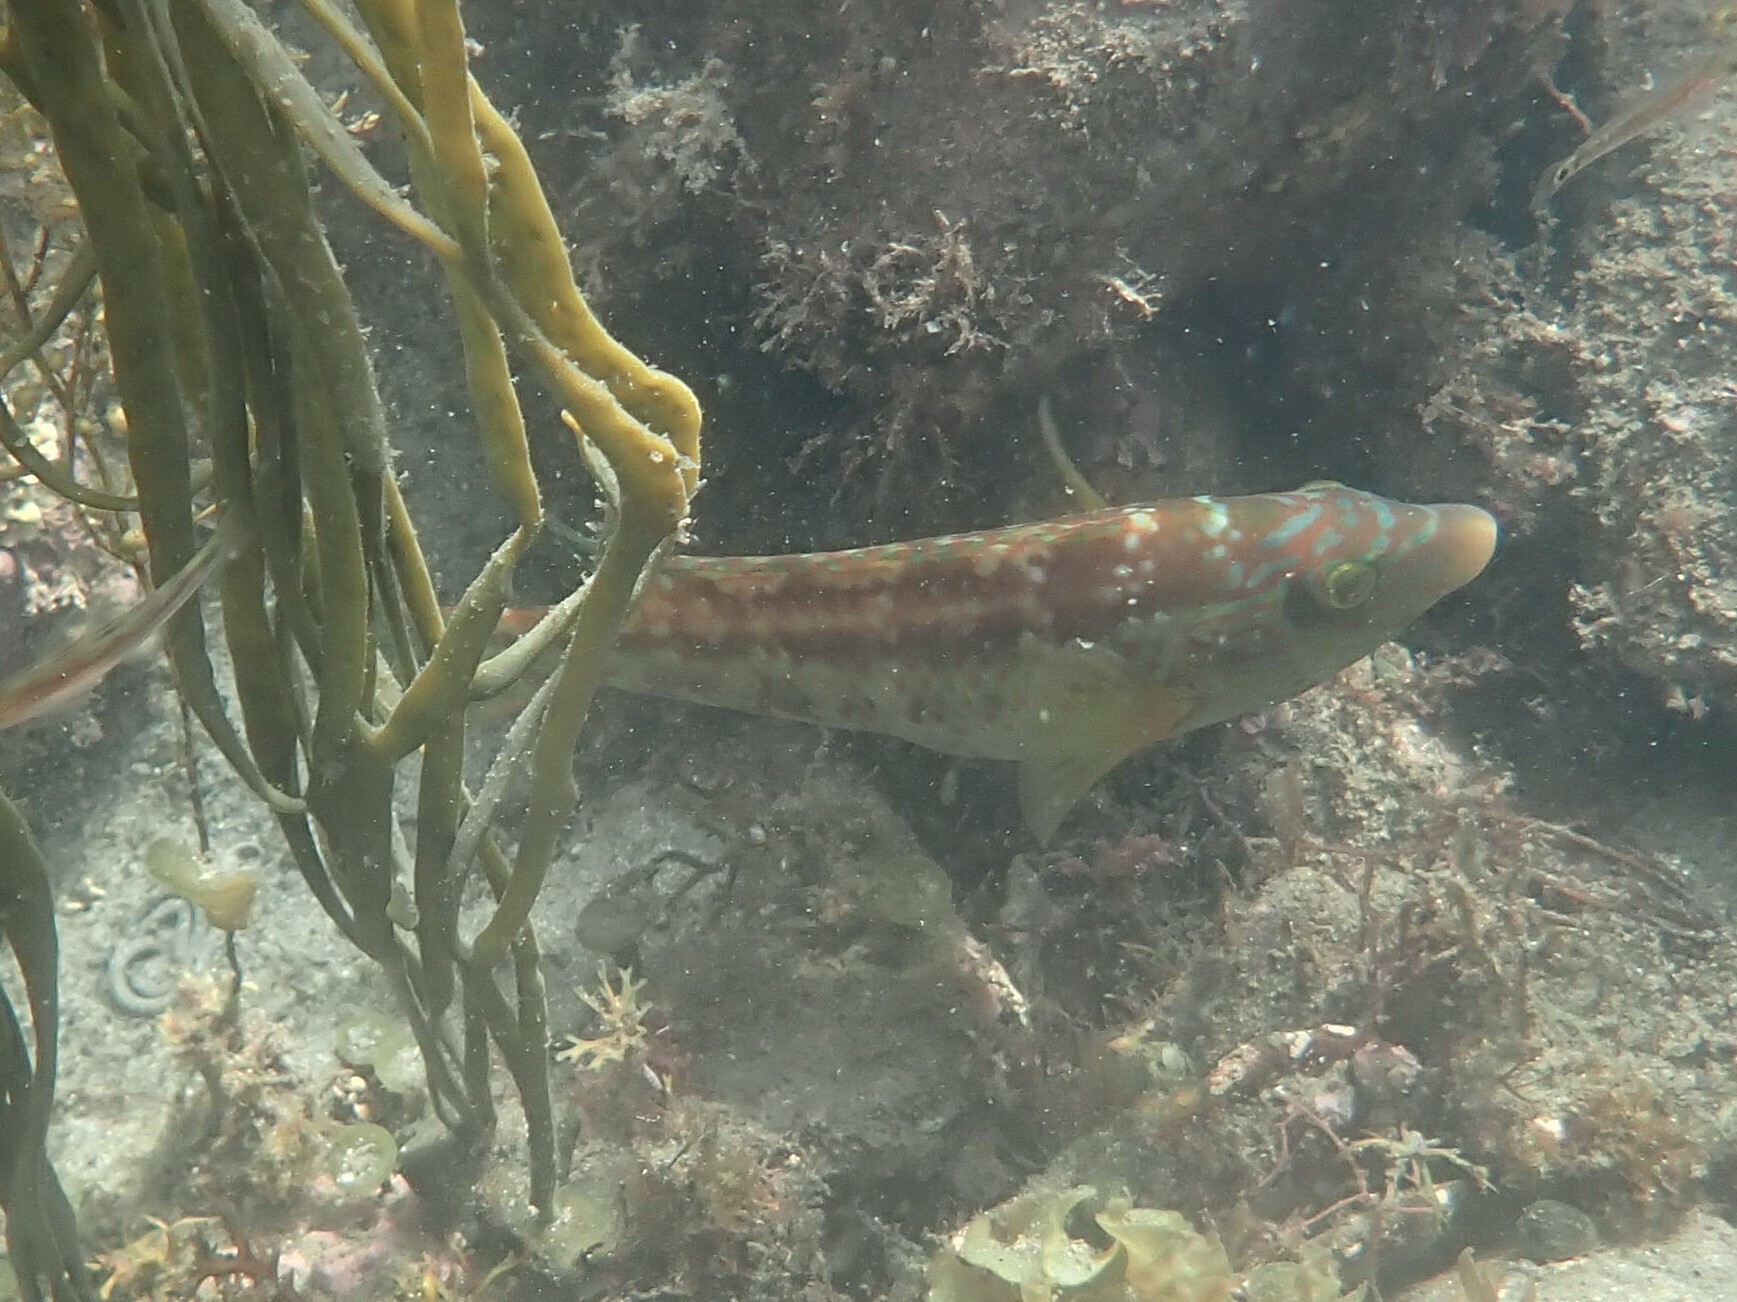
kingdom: Animalia
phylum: Chordata
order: Perciformes
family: Labridae
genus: Symphodus
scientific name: Symphodus melops
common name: Corkwing
